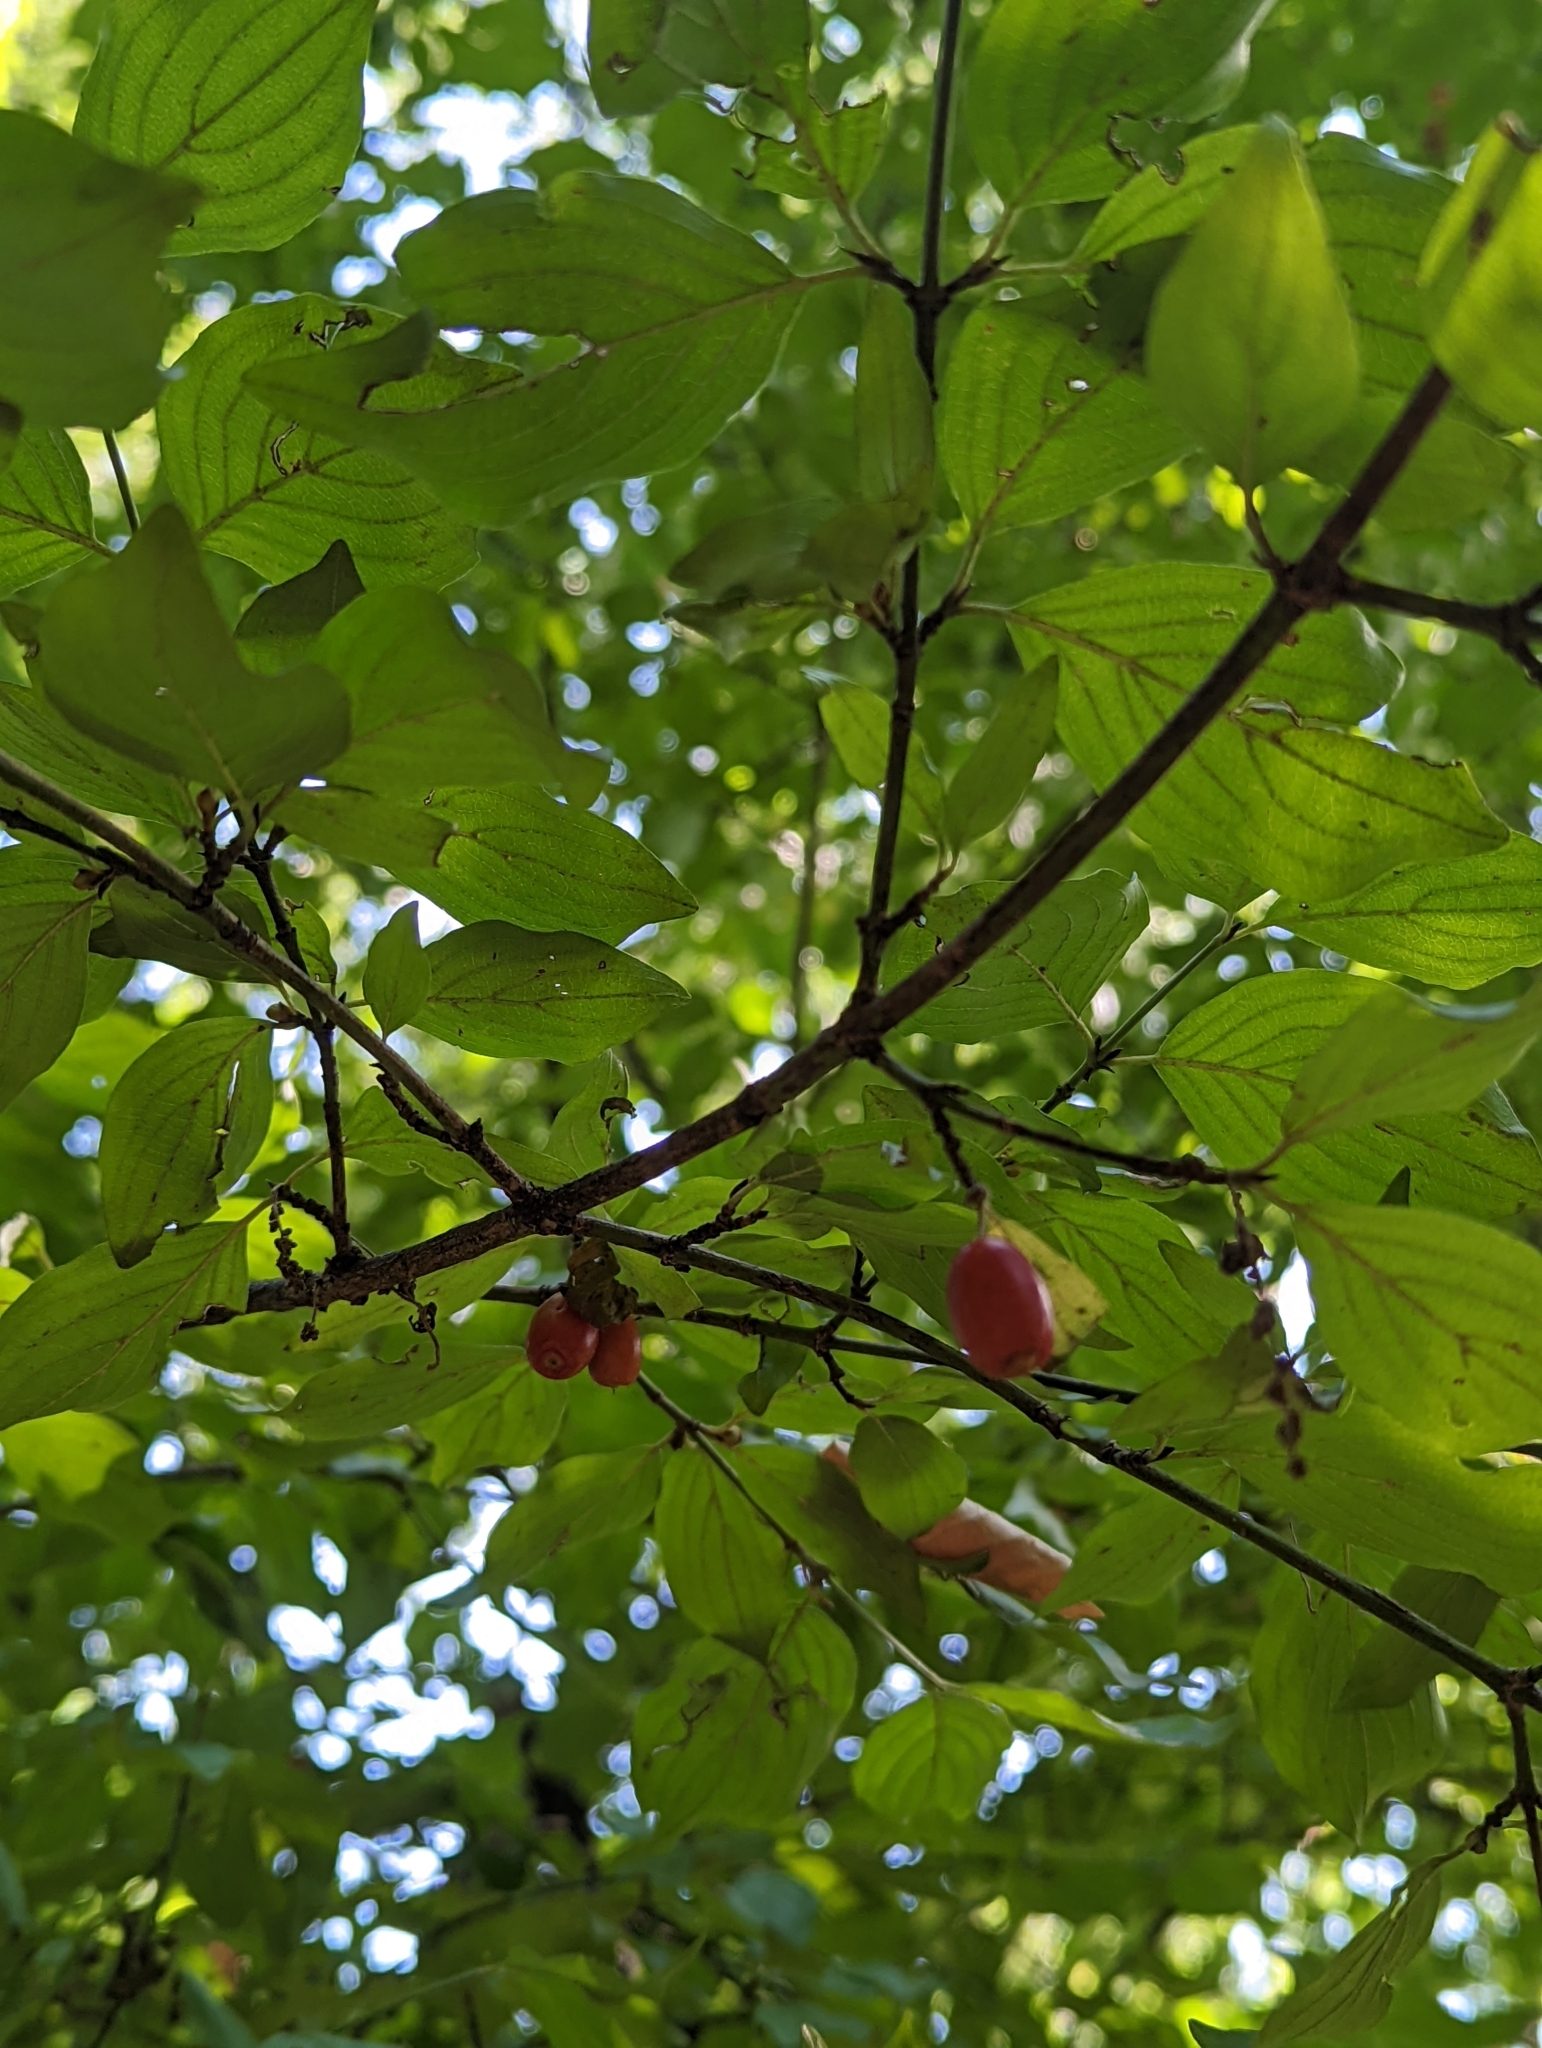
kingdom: Plantae
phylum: Tracheophyta
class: Magnoliopsida
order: Cornales
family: Cornaceae
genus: Cornus
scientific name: Cornus mas
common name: Cornelian-cherry
